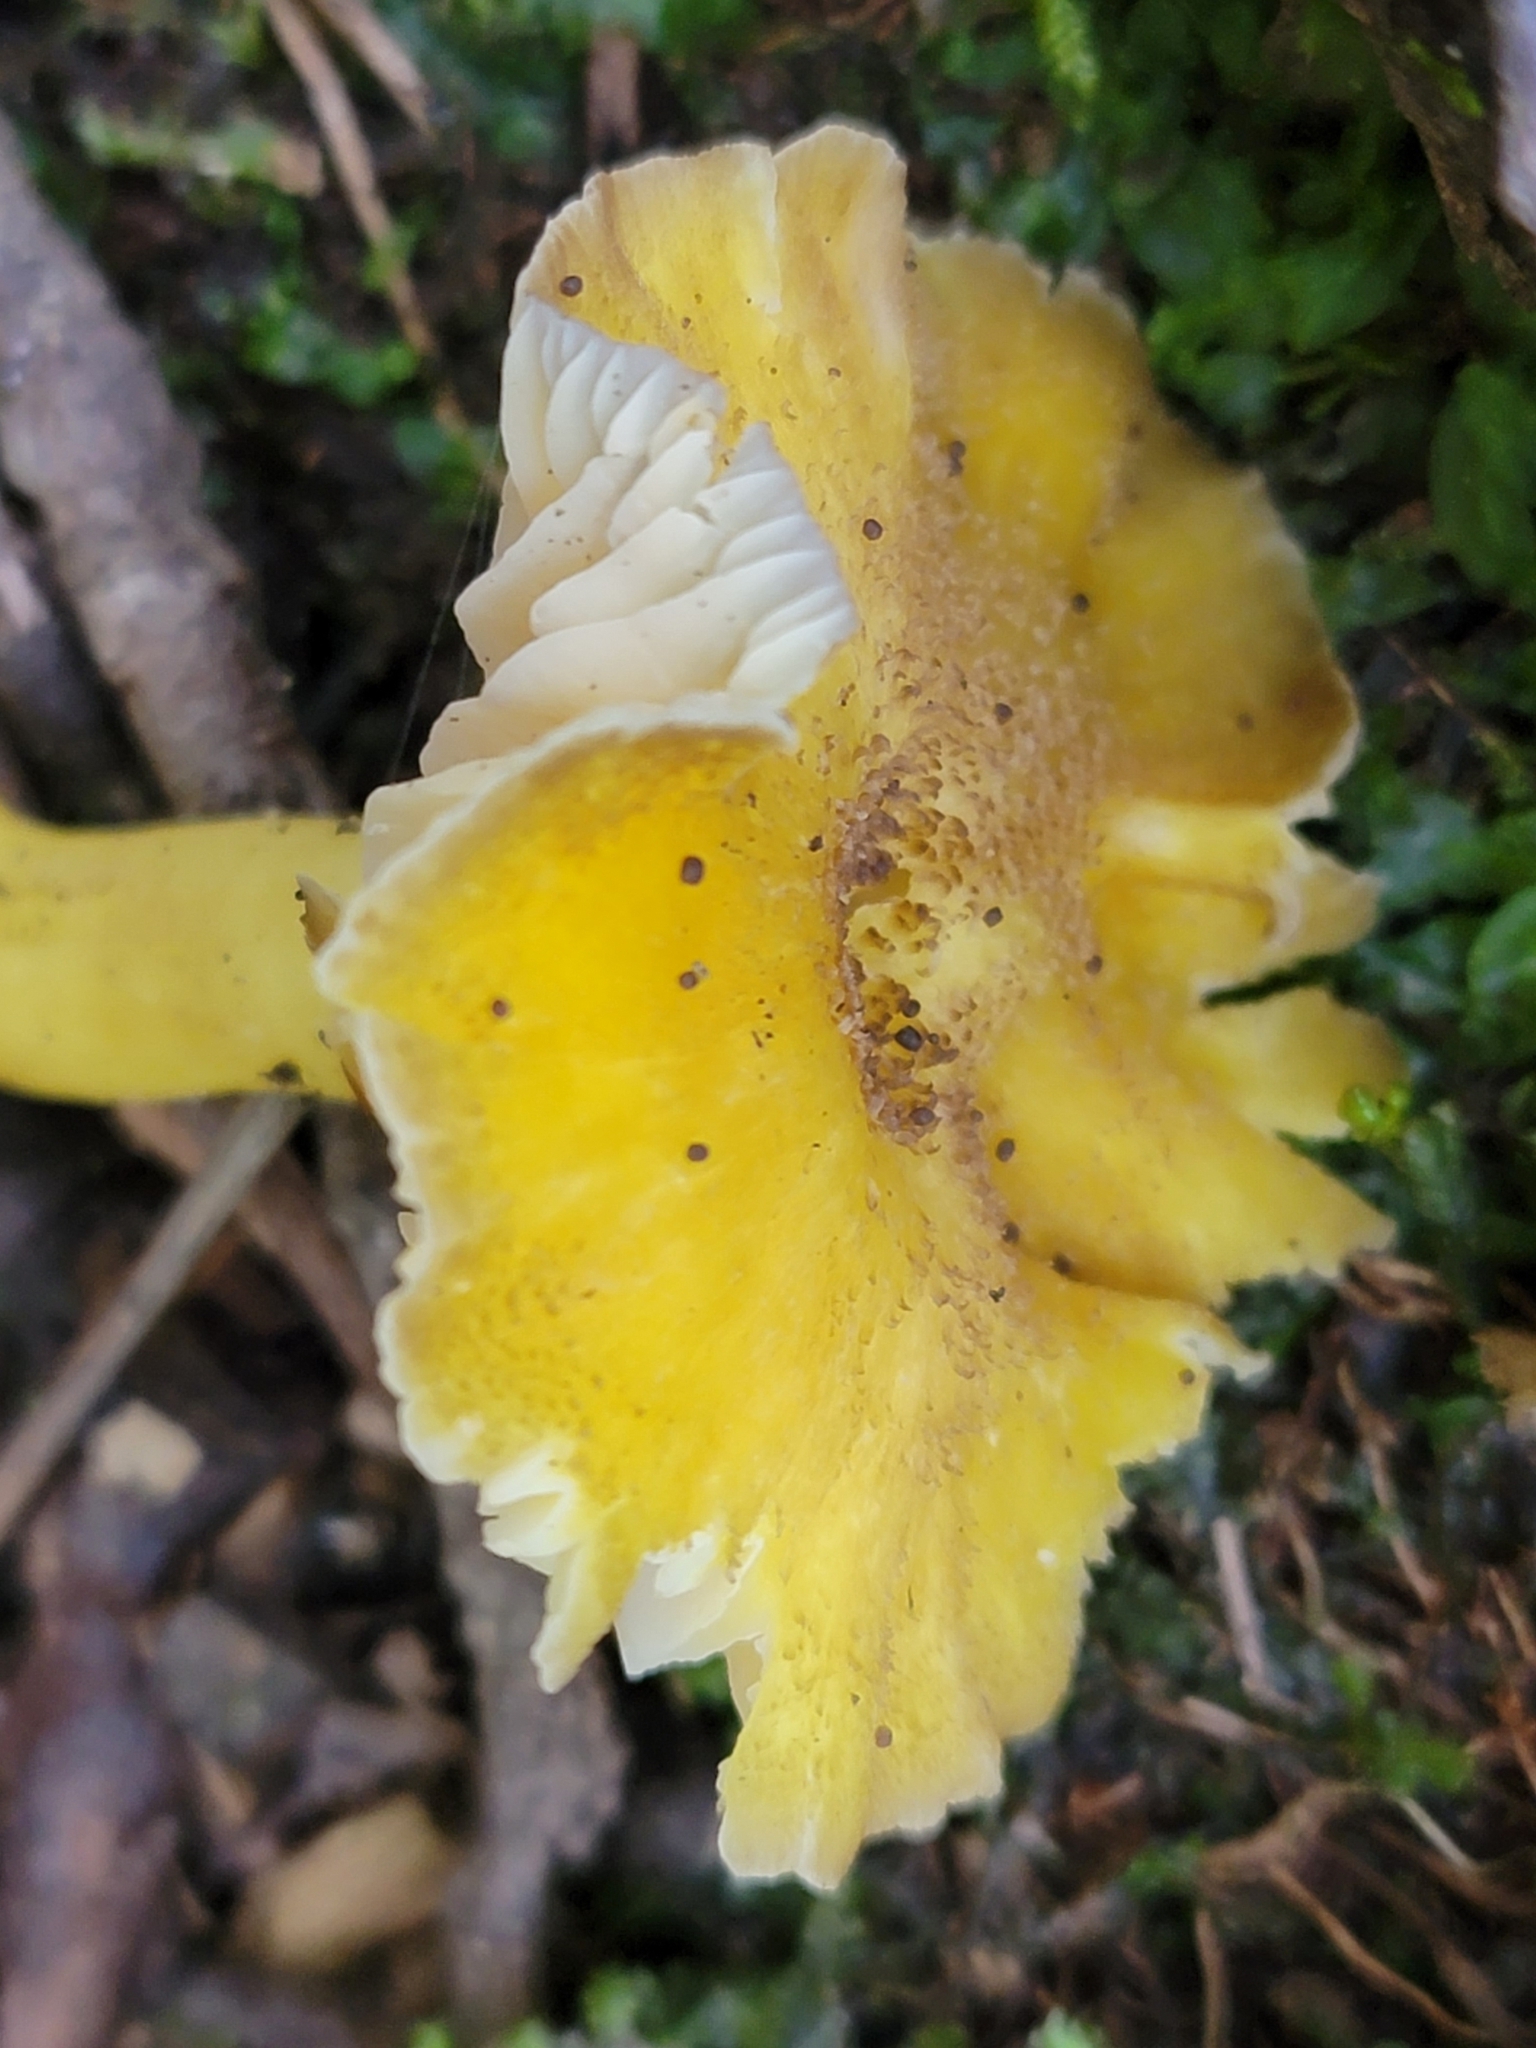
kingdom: Fungi
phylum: Basidiomycota
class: Agaricomycetes
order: Agaricales
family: Hygrophoraceae
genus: Hygrocybe
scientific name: Hygrocybe caespitosa
